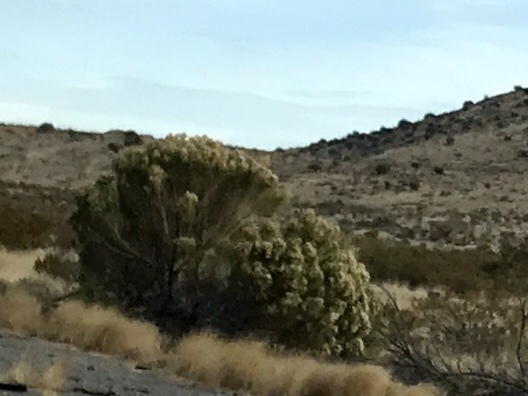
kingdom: Plantae
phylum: Tracheophyta
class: Magnoliopsida
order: Asterales
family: Asteraceae
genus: Baccharis
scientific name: Baccharis sarothroides
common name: Desert-broom
